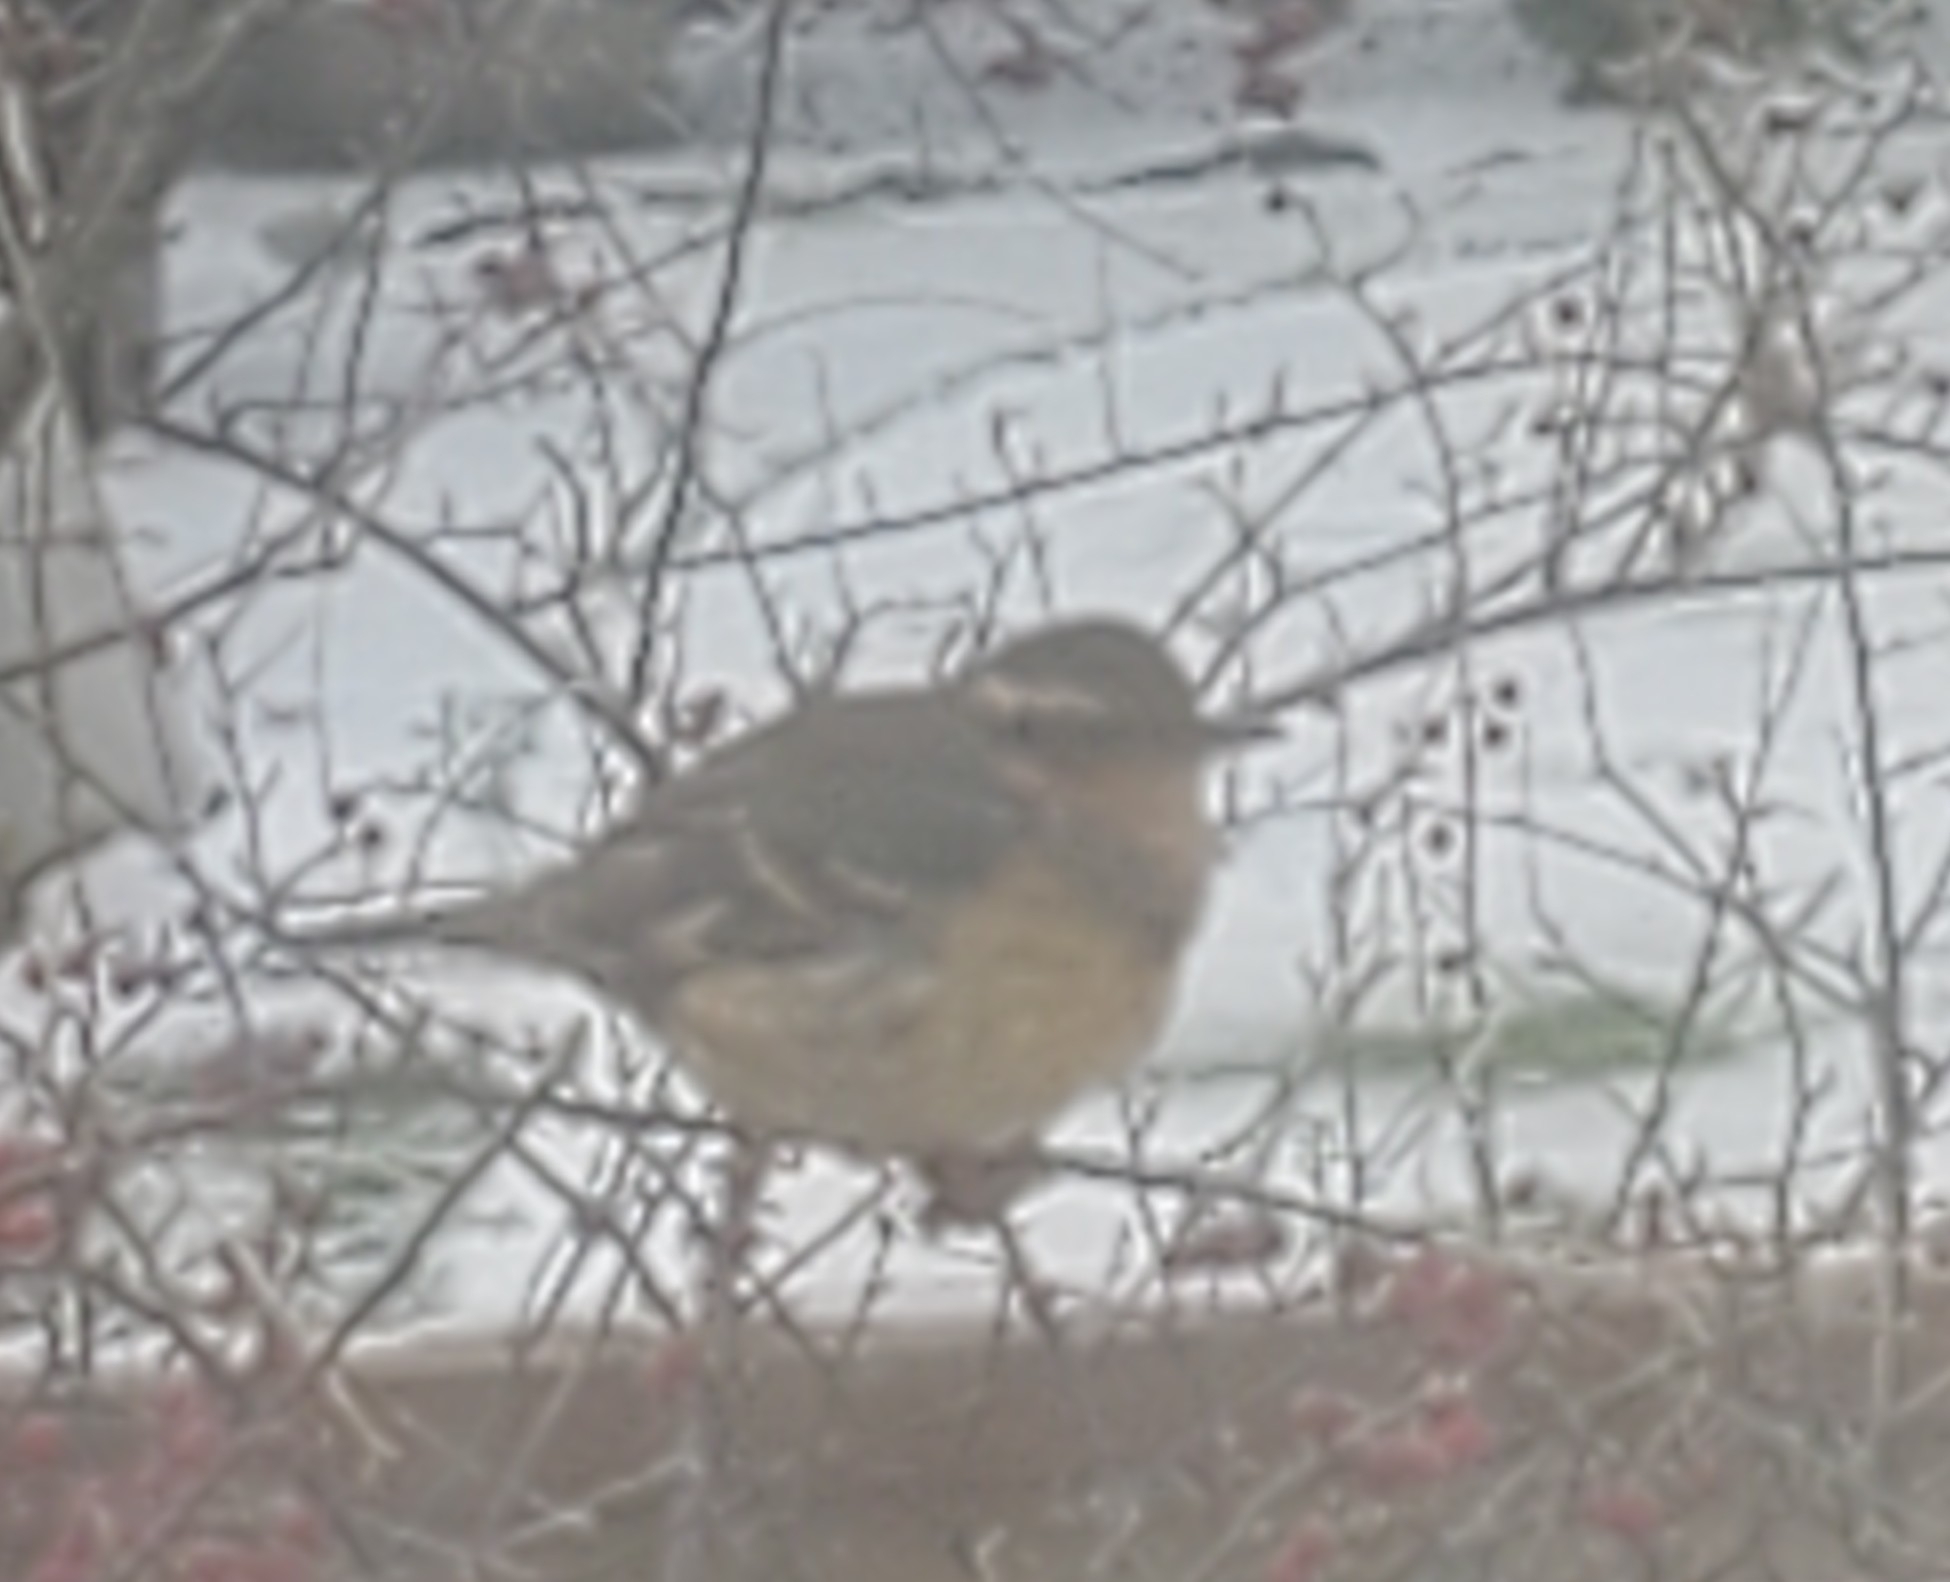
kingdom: Animalia
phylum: Chordata
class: Aves
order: Passeriformes
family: Turdidae
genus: Ixoreus
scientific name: Ixoreus naevius
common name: Varied thrush
